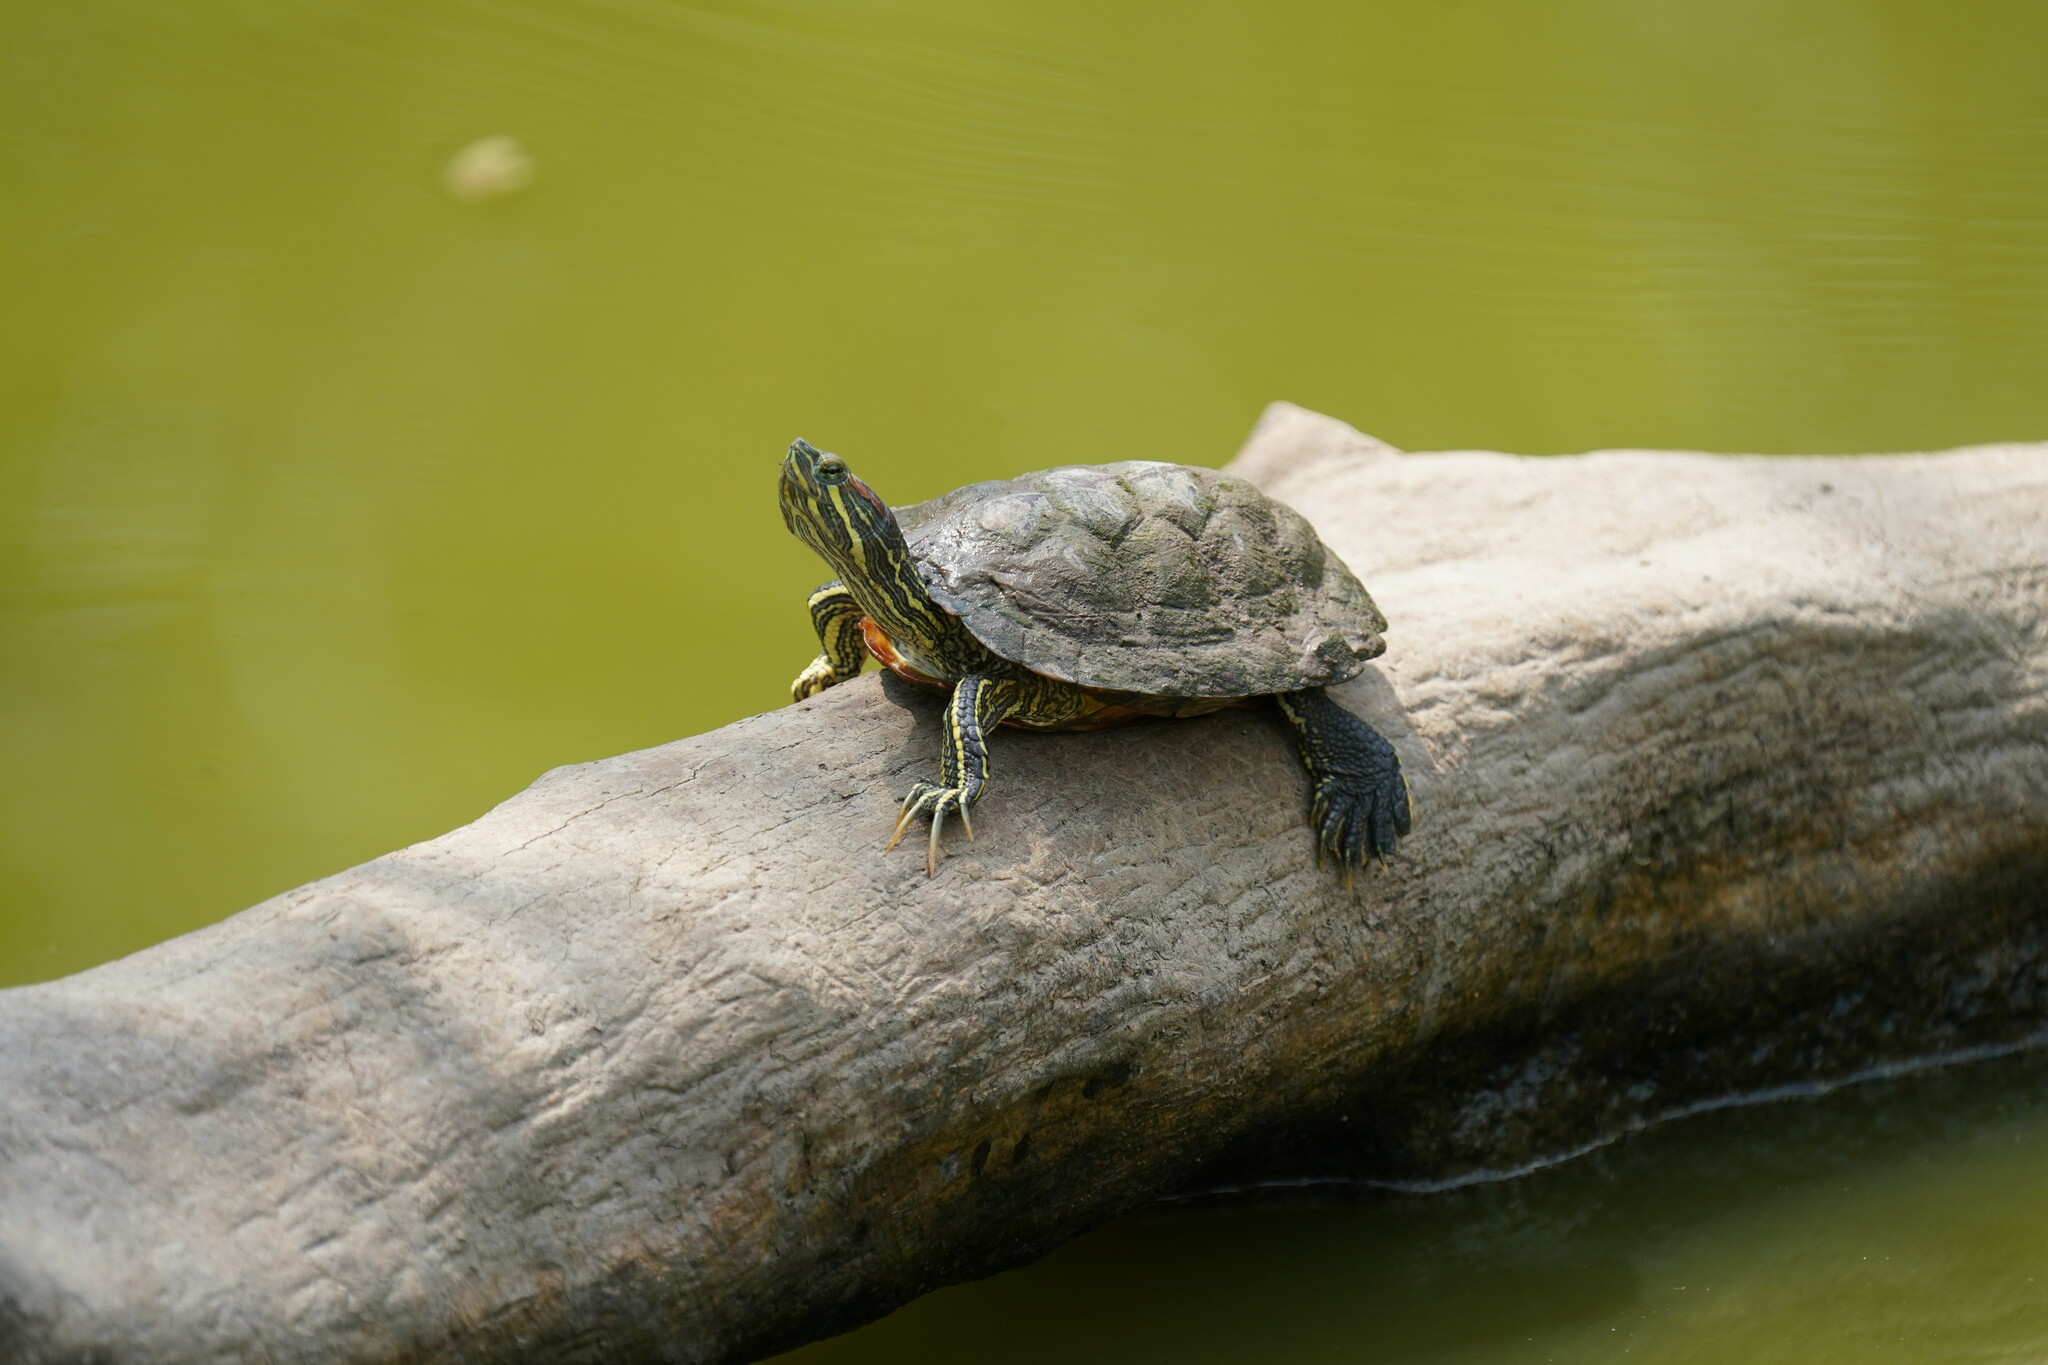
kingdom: Animalia
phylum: Chordata
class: Testudines
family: Emydidae
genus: Trachemys
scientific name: Trachemys scripta
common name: Slider
